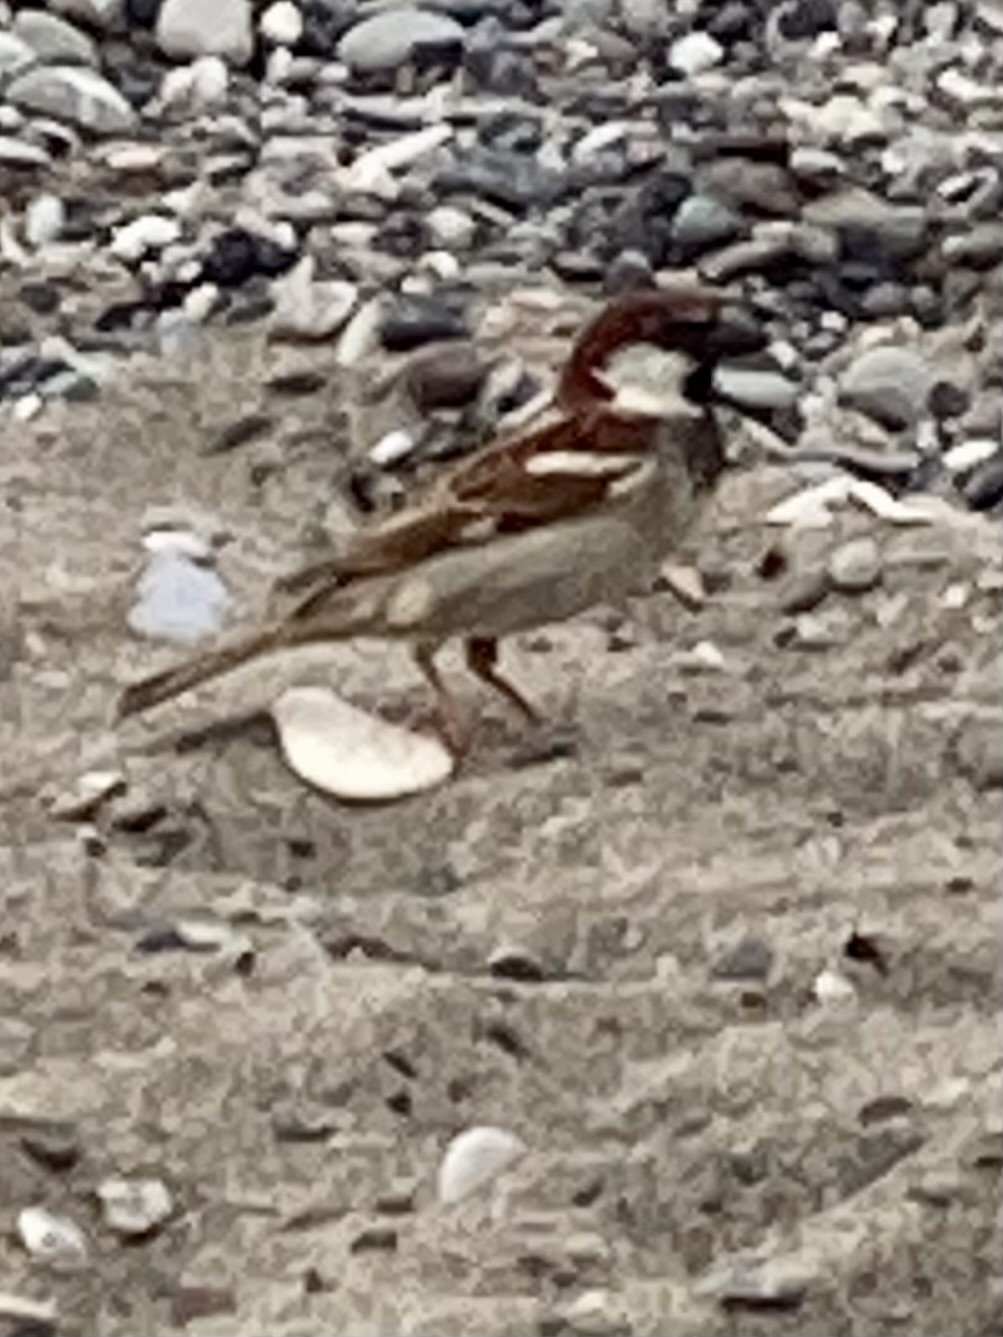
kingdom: Animalia
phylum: Chordata
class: Aves
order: Passeriformes
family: Passeridae
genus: Passer
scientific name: Passer italiae
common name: Italian sparrow
